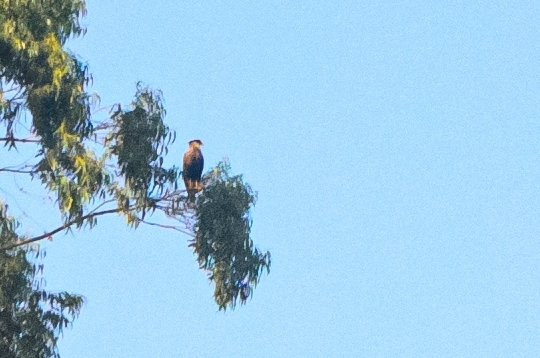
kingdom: Animalia
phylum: Chordata
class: Aves
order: Falconiformes
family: Falconidae
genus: Caracara
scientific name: Caracara plancus
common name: Southern caracara
